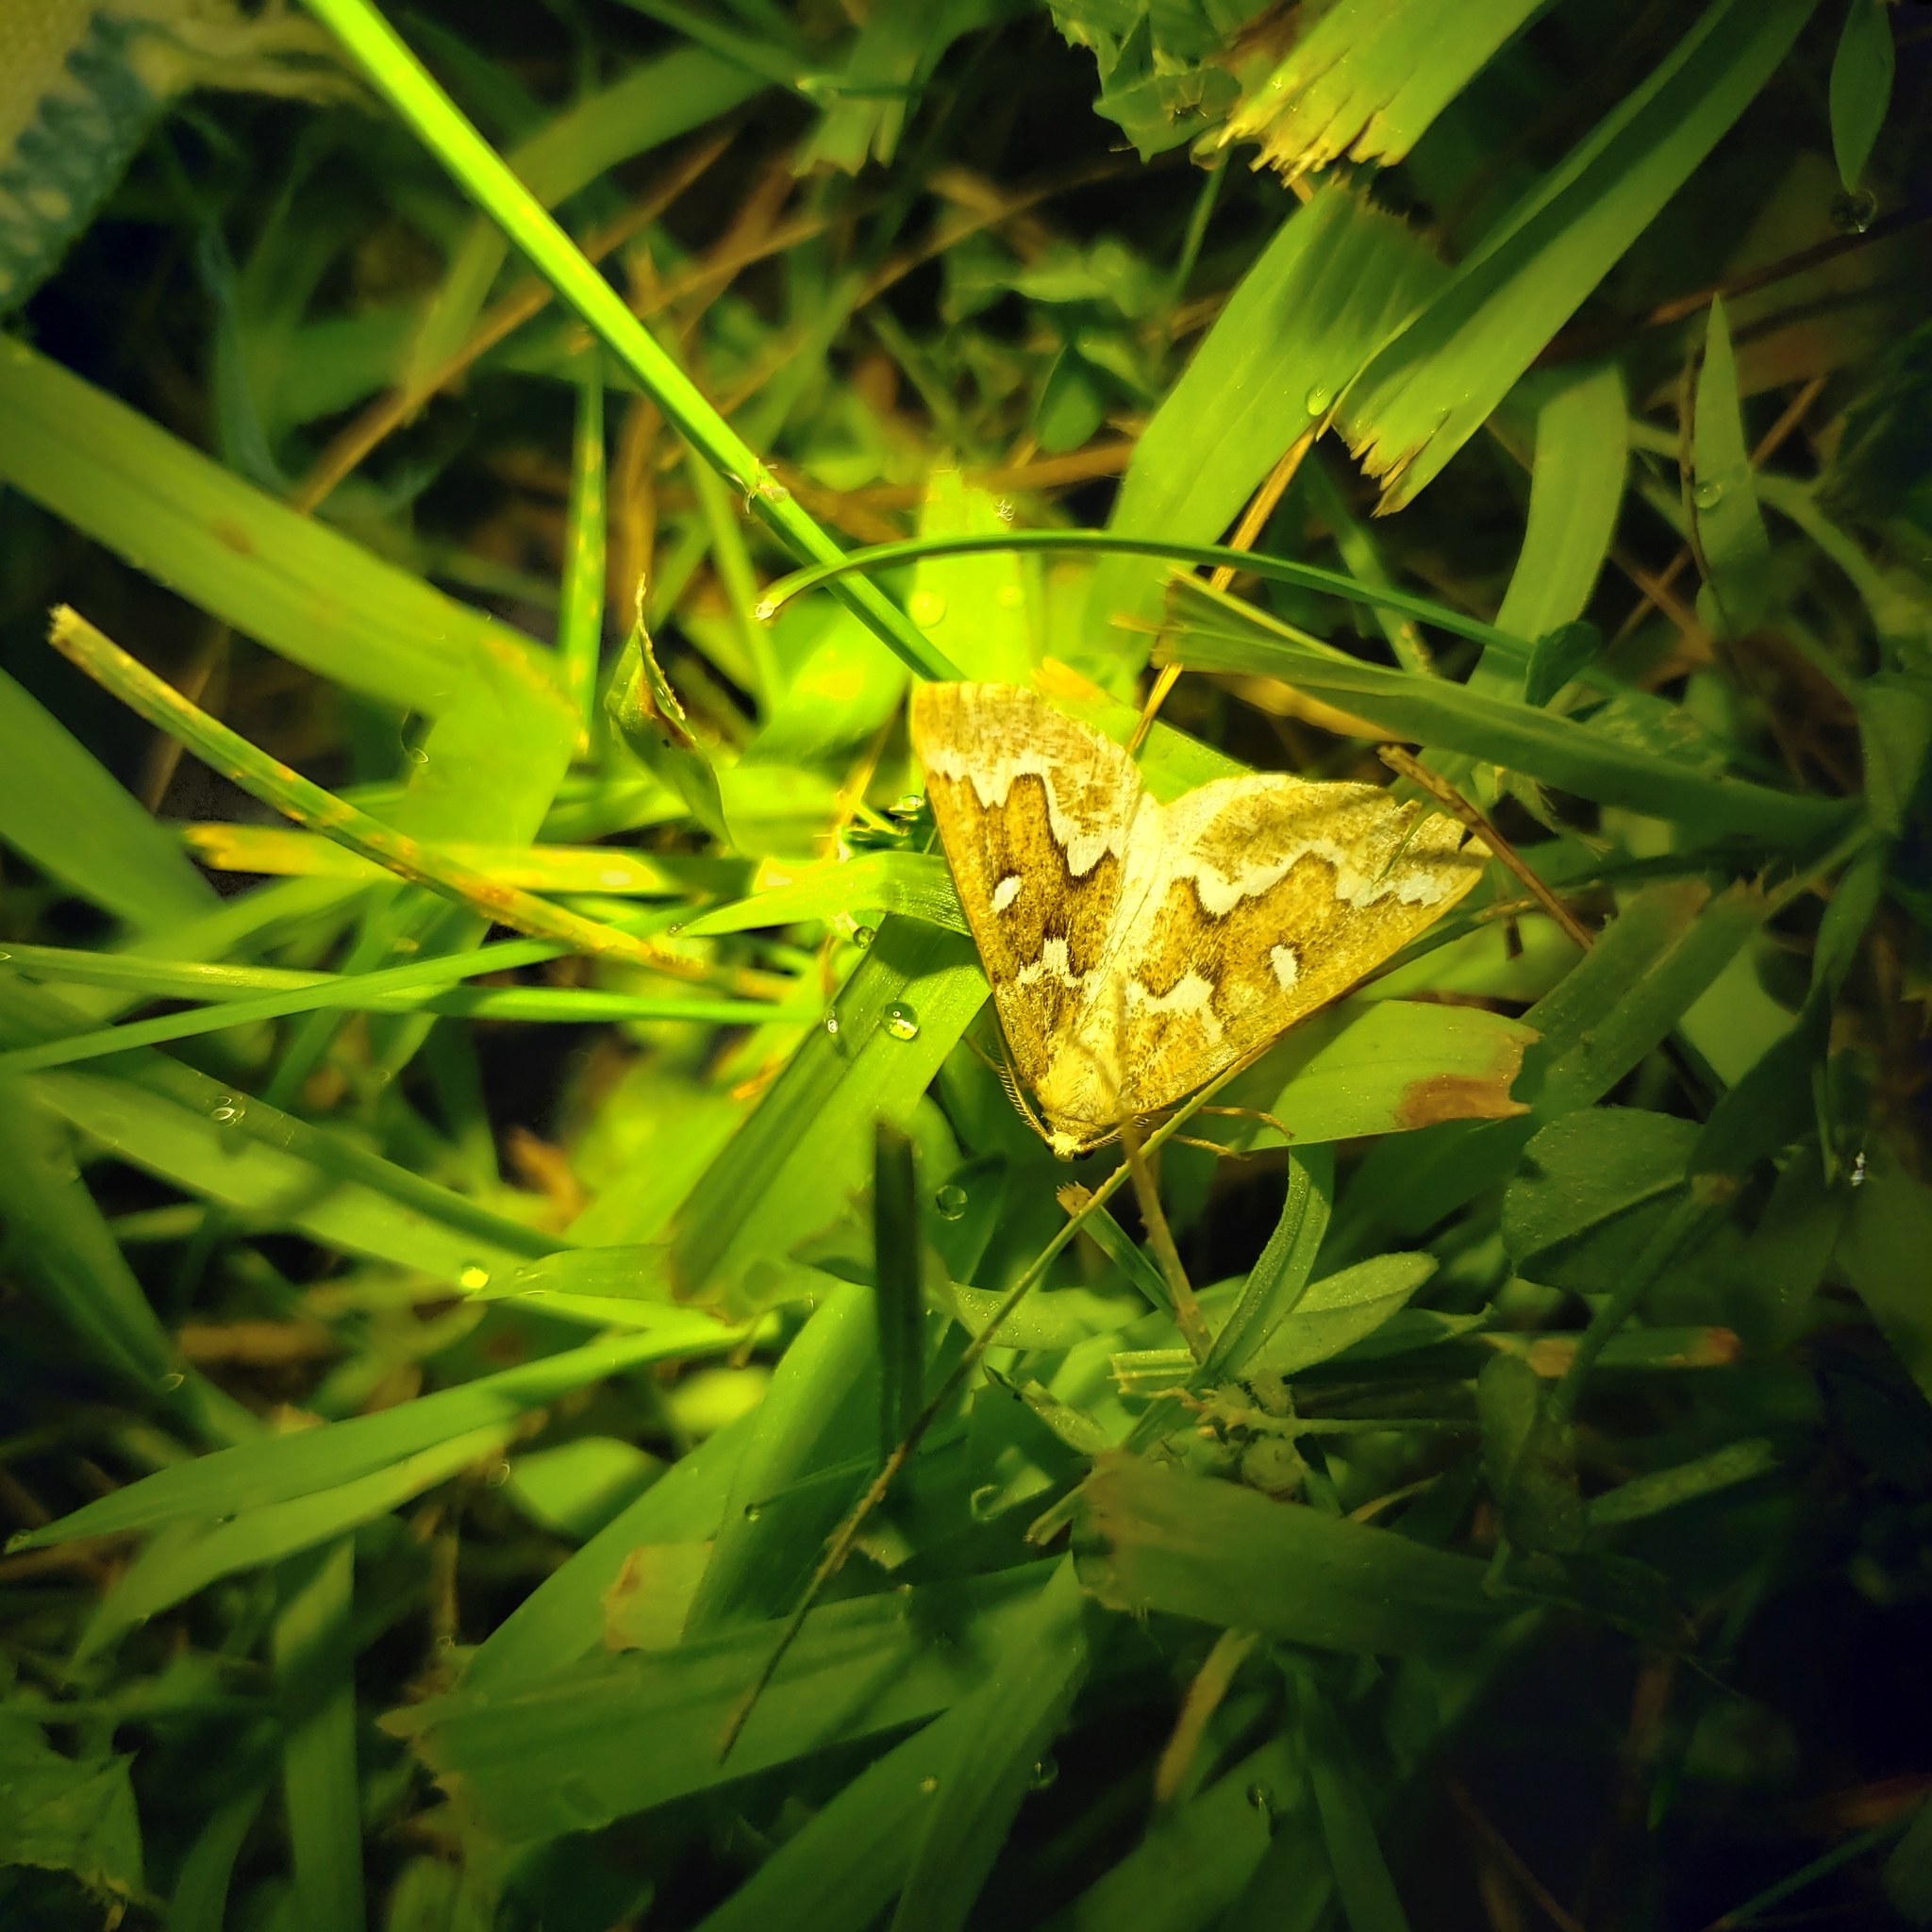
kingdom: Animalia
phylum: Arthropoda
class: Insecta
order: Lepidoptera
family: Geometridae
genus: Caripeta
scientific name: Caripeta divisata
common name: Gray spruce looper
